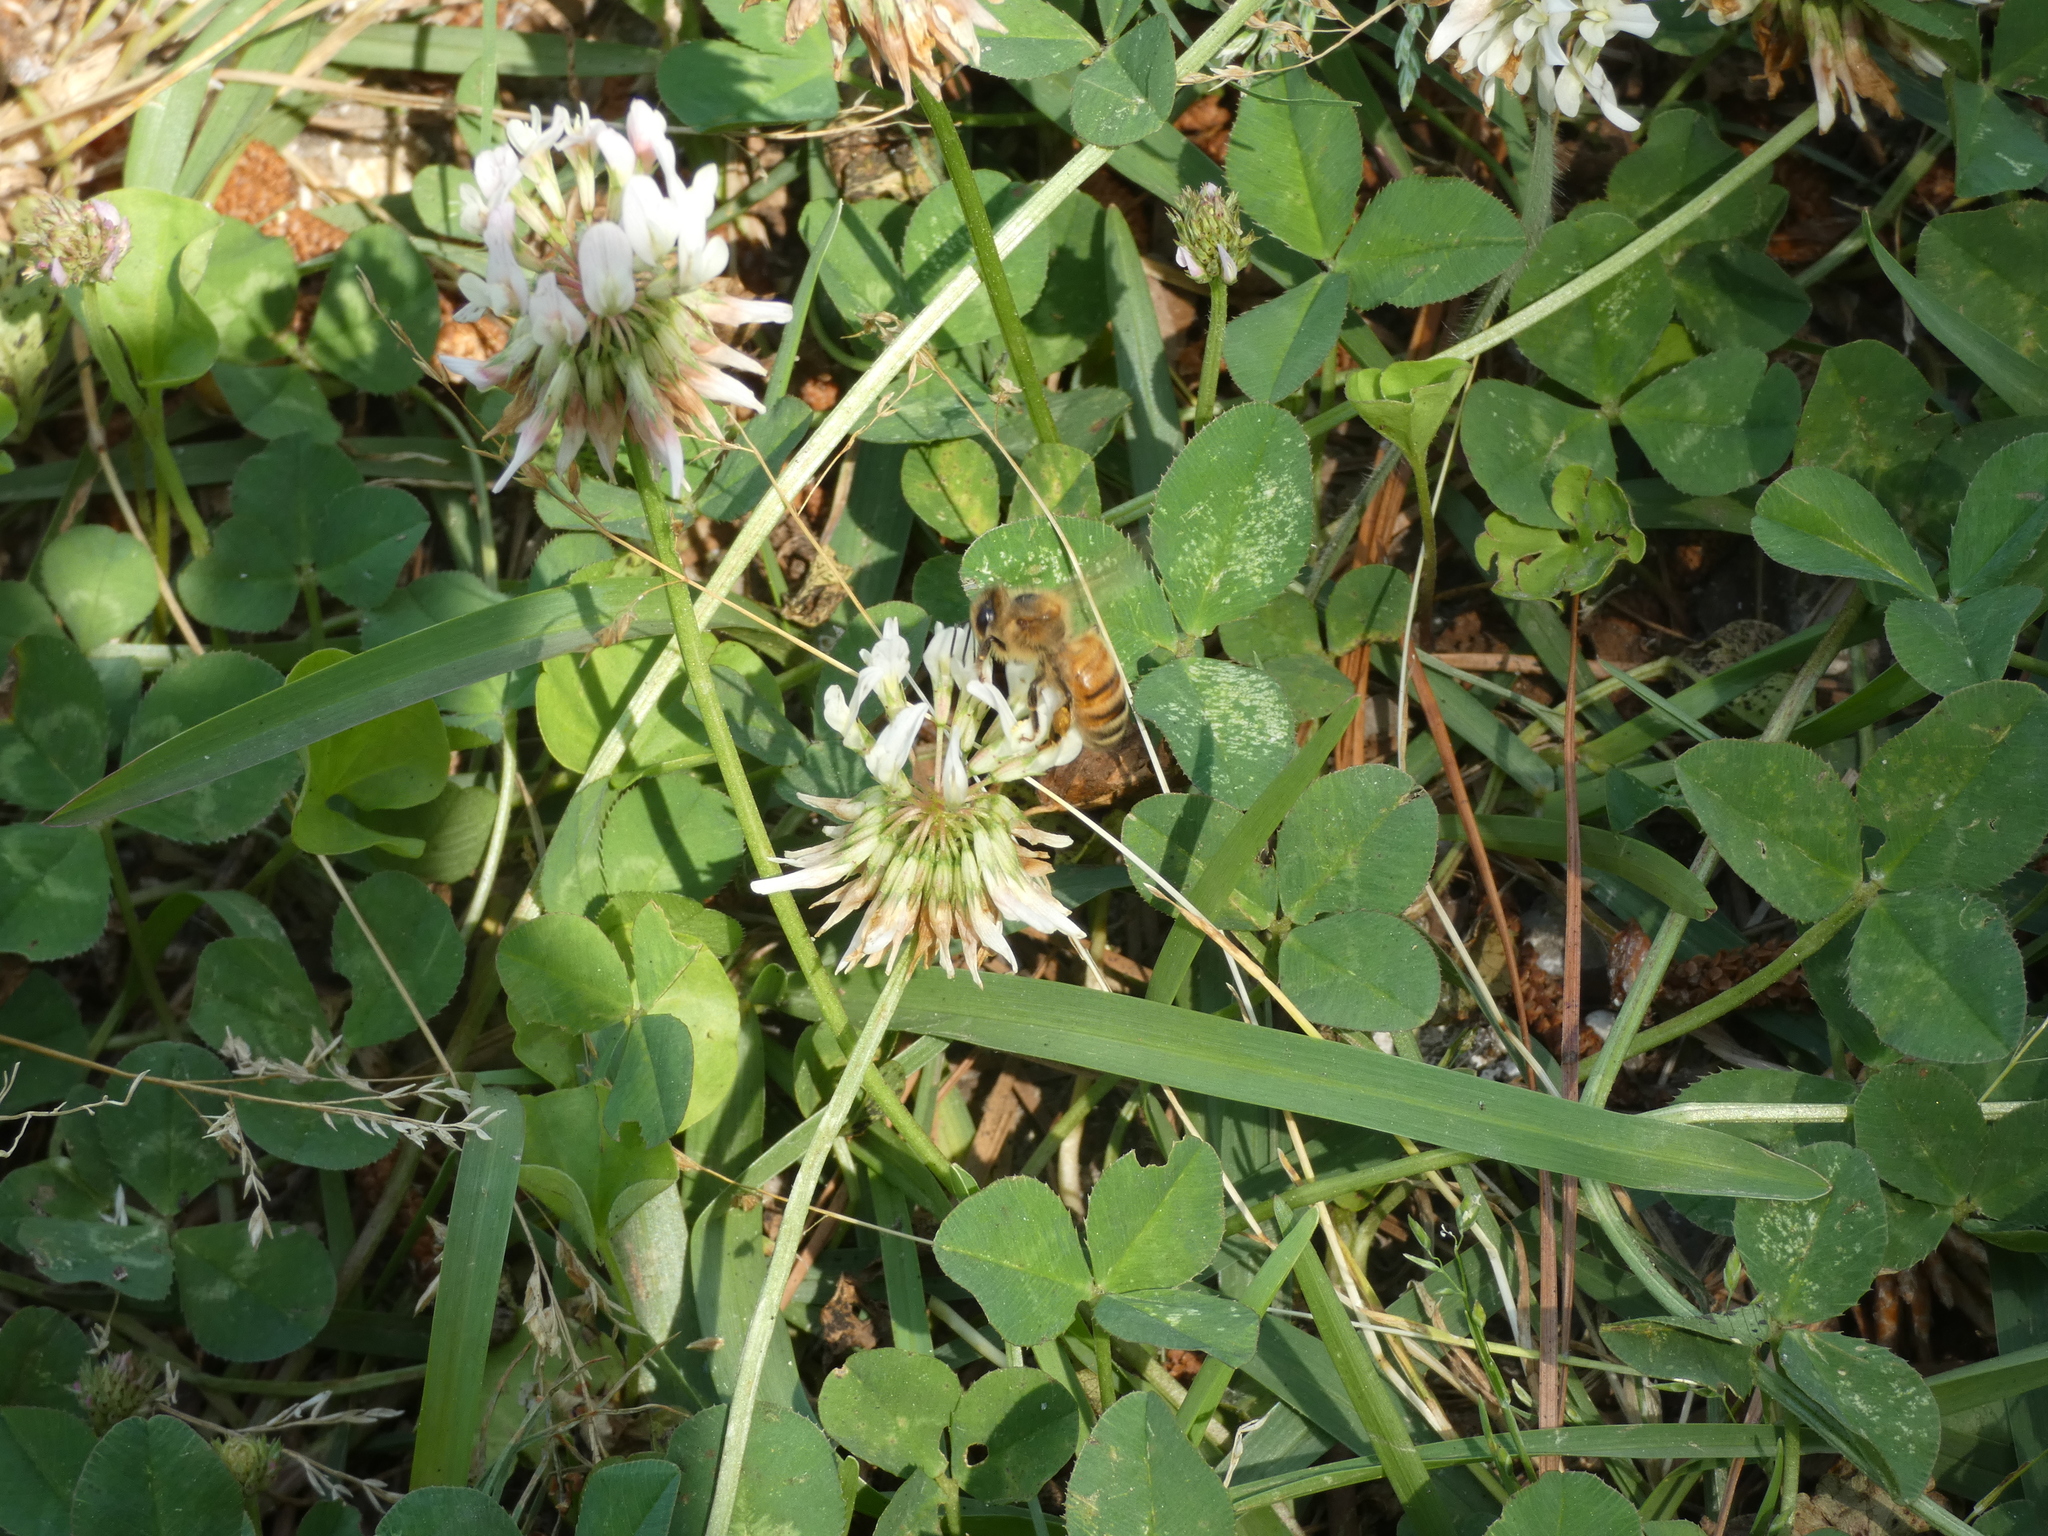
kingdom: Animalia
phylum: Arthropoda
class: Insecta
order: Hymenoptera
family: Apidae
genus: Apis
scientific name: Apis mellifera
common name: Honey bee
